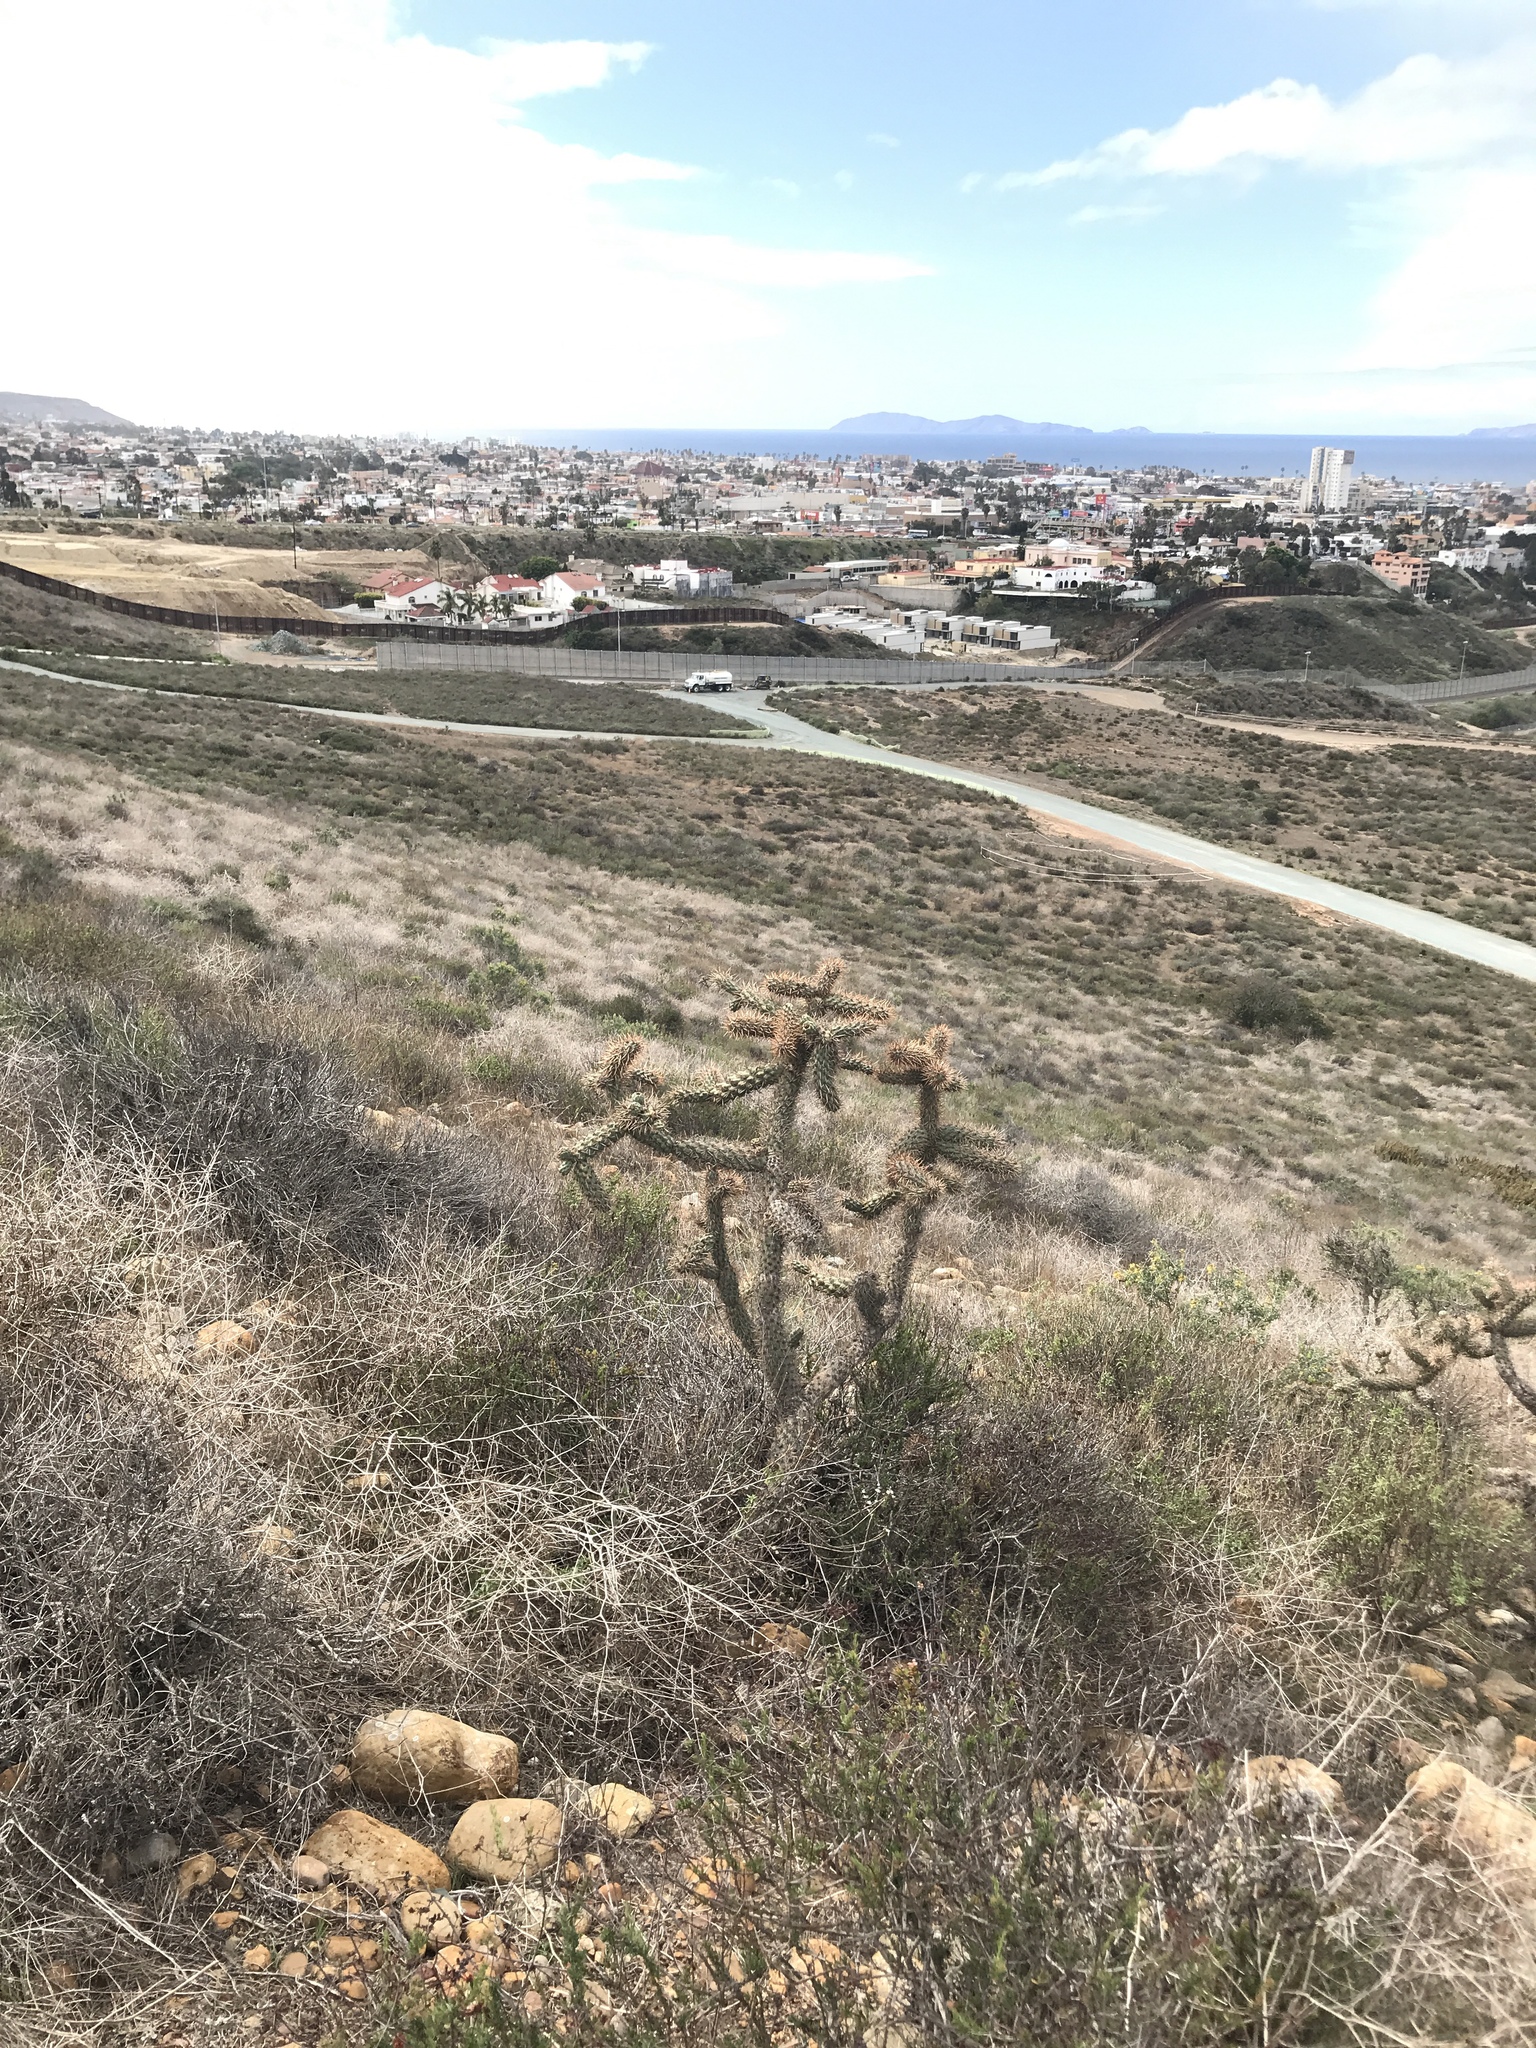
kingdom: Plantae
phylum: Tracheophyta
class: Magnoliopsida
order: Caryophyllales
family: Cactaceae
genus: Cylindropuntia
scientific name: Cylindropuntia prolifera
